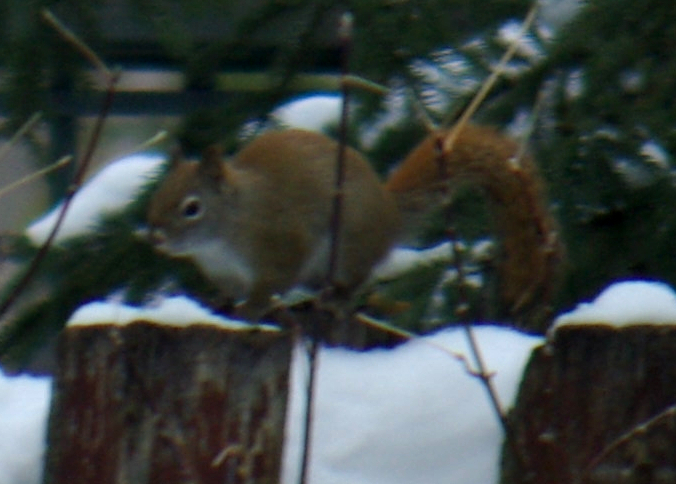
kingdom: Animalia
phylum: Chordata
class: Mammalia
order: Rodentia
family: Sciuridae
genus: Tamiasciurus
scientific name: Tamiasciurus hudsonicus
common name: Red squirrel
